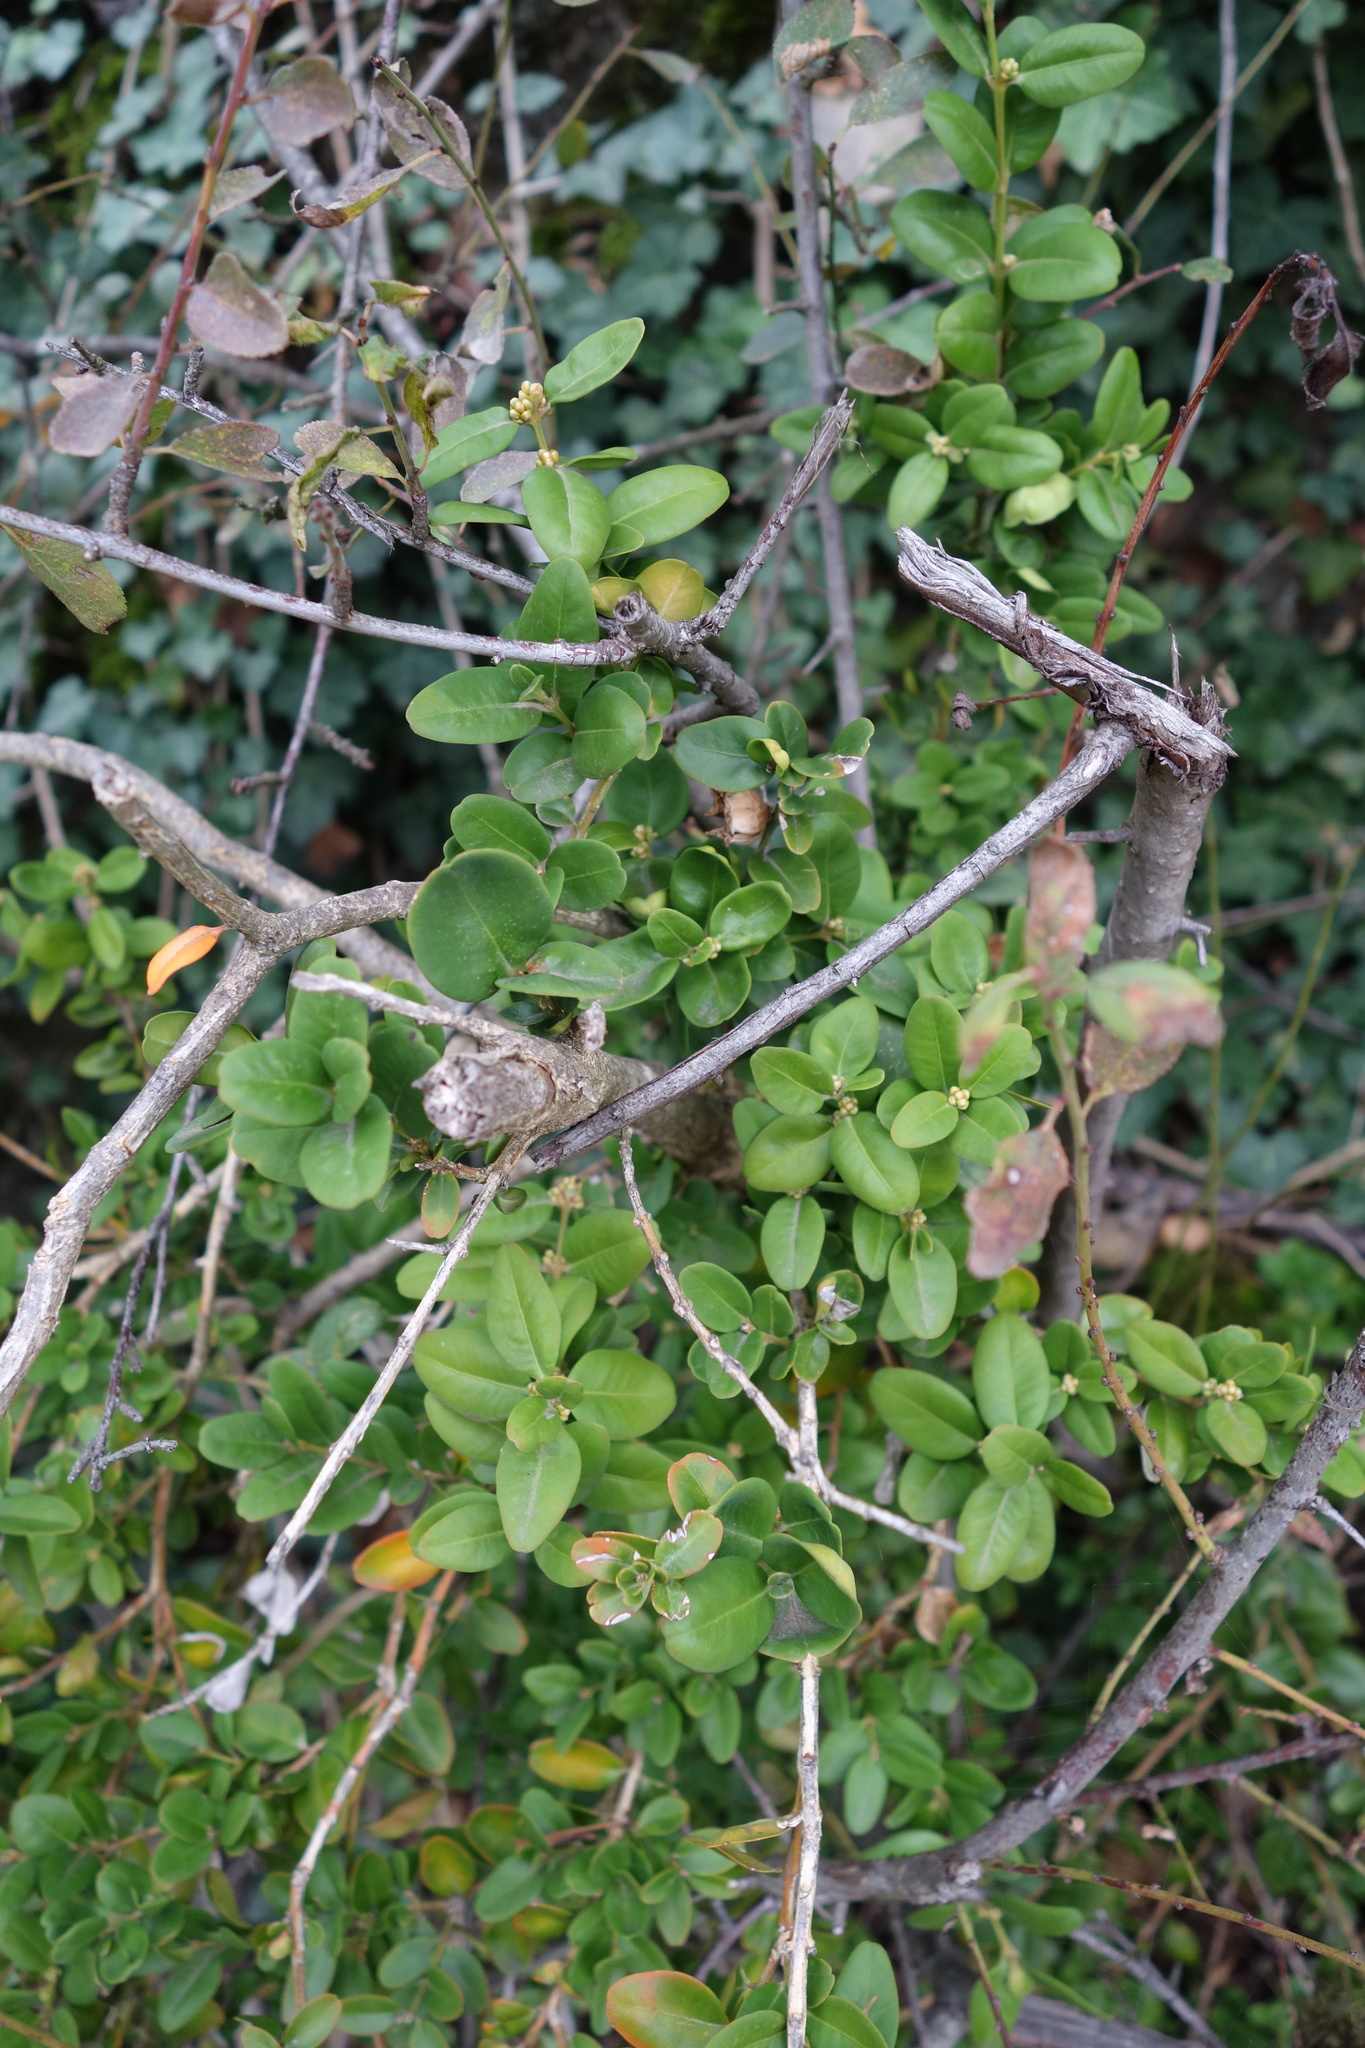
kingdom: Plantae
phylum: Tracheophyta
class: Magnoliopsida
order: Buxales
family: Buxaceae
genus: Buxus
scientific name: Buxus sempervirens
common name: Box
